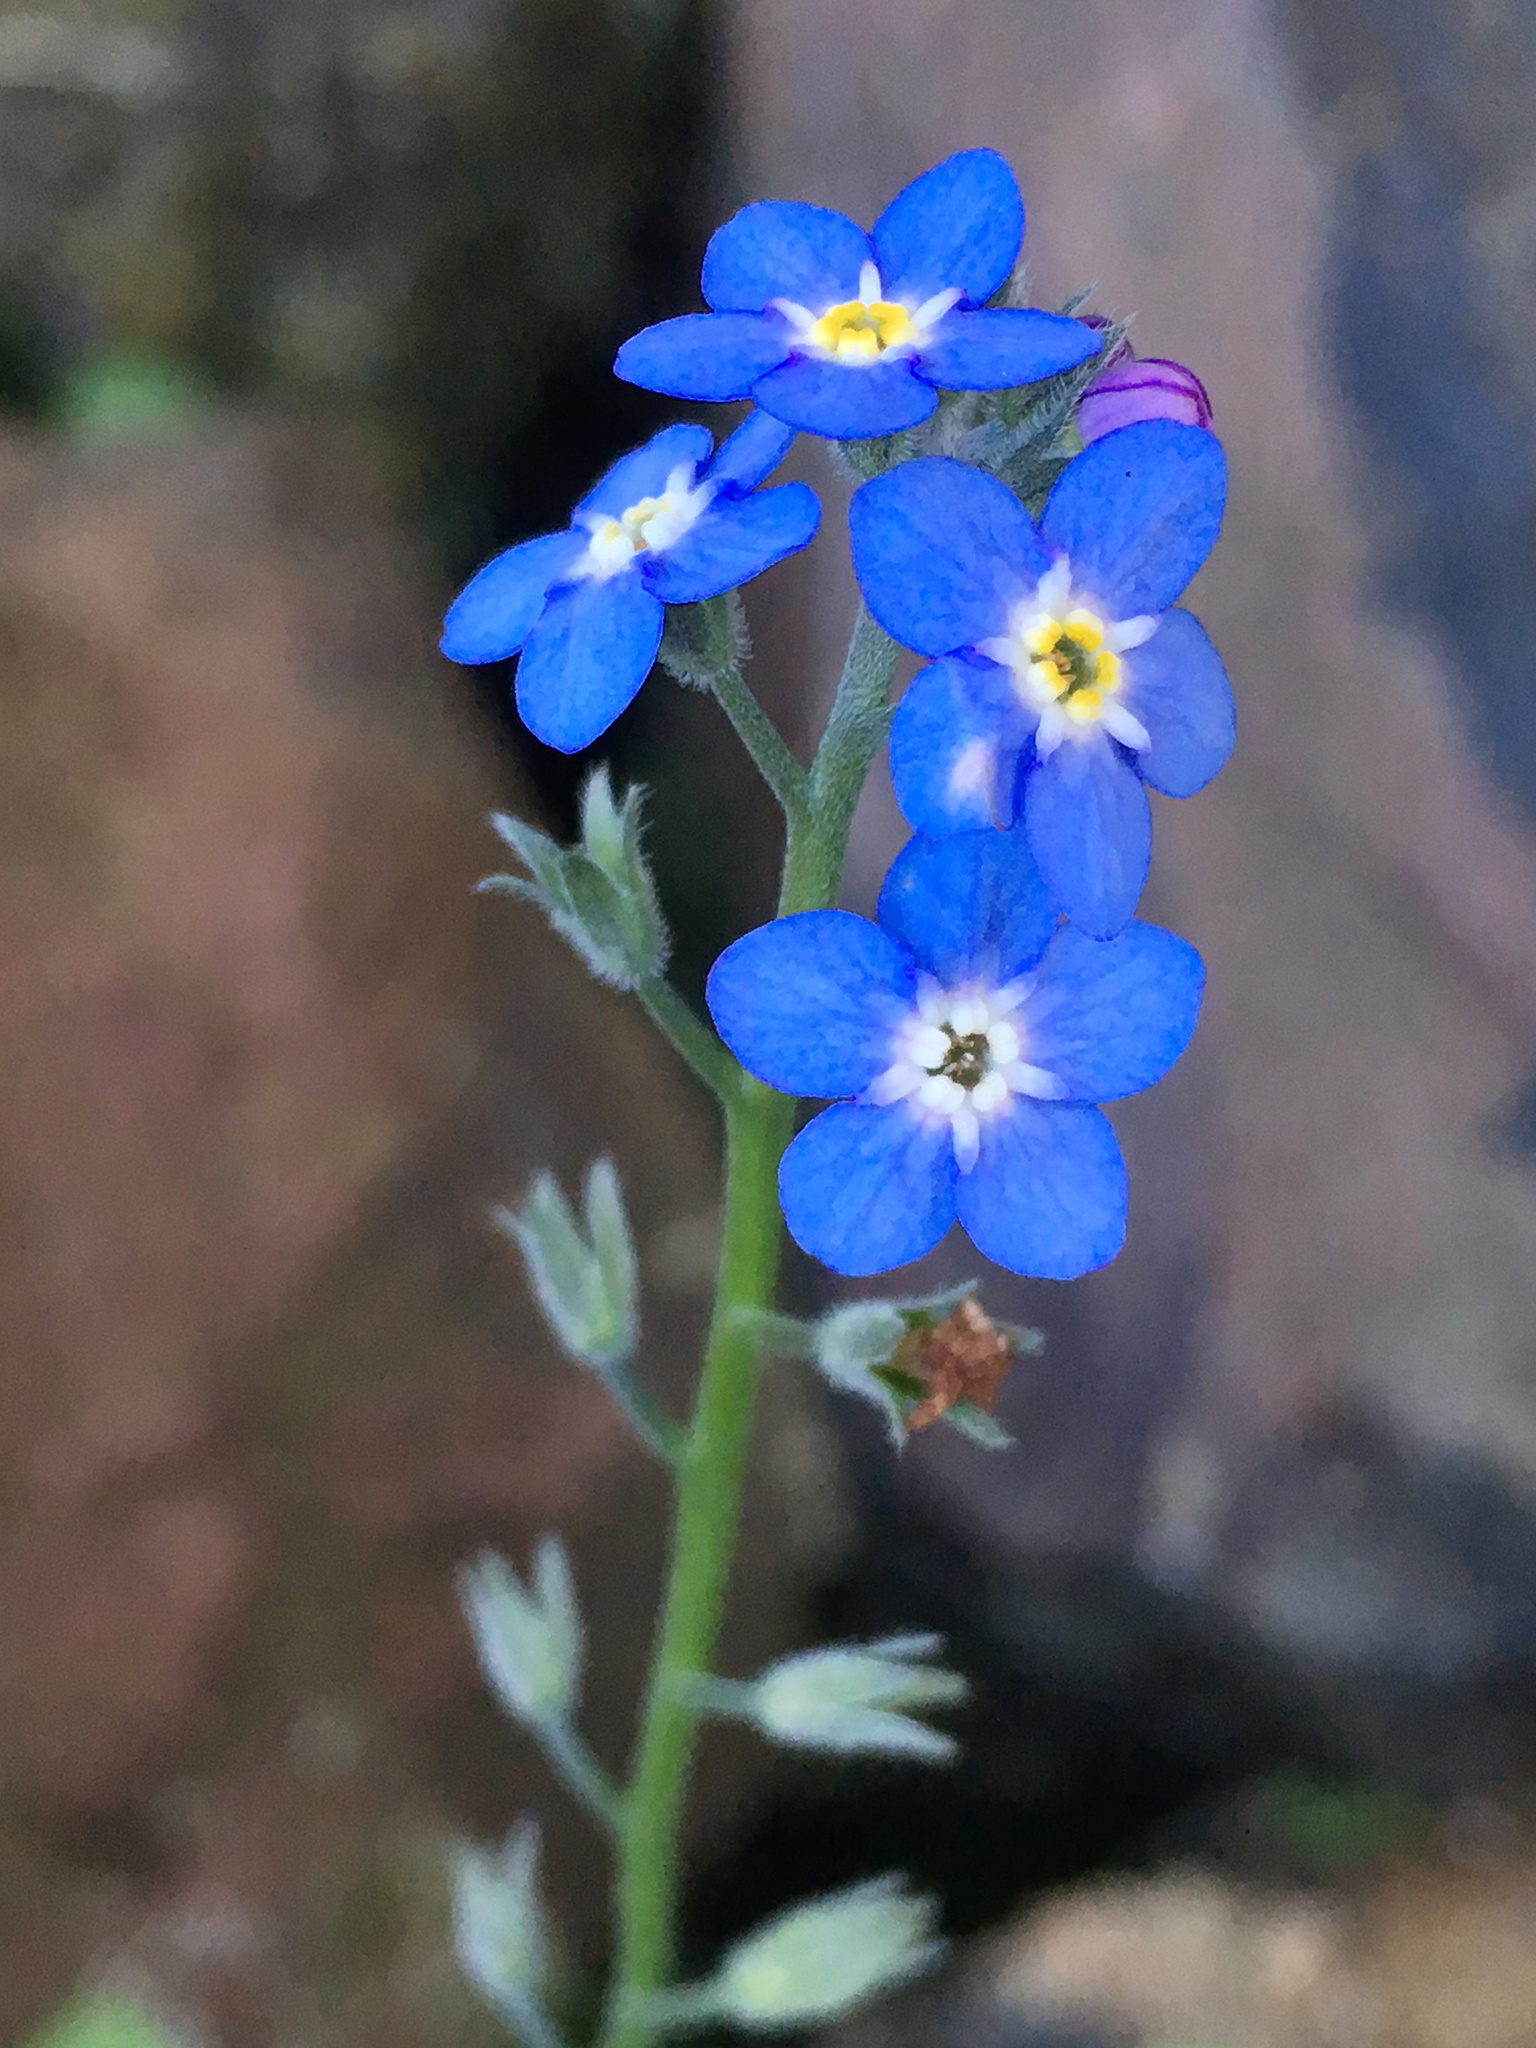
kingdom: Plantae
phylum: Tracheophyta
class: Magnoliopsida
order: Boraginales
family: Boraginaceae
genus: Myosotis
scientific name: Myosotis sylvatica
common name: Wood forget-me-not
